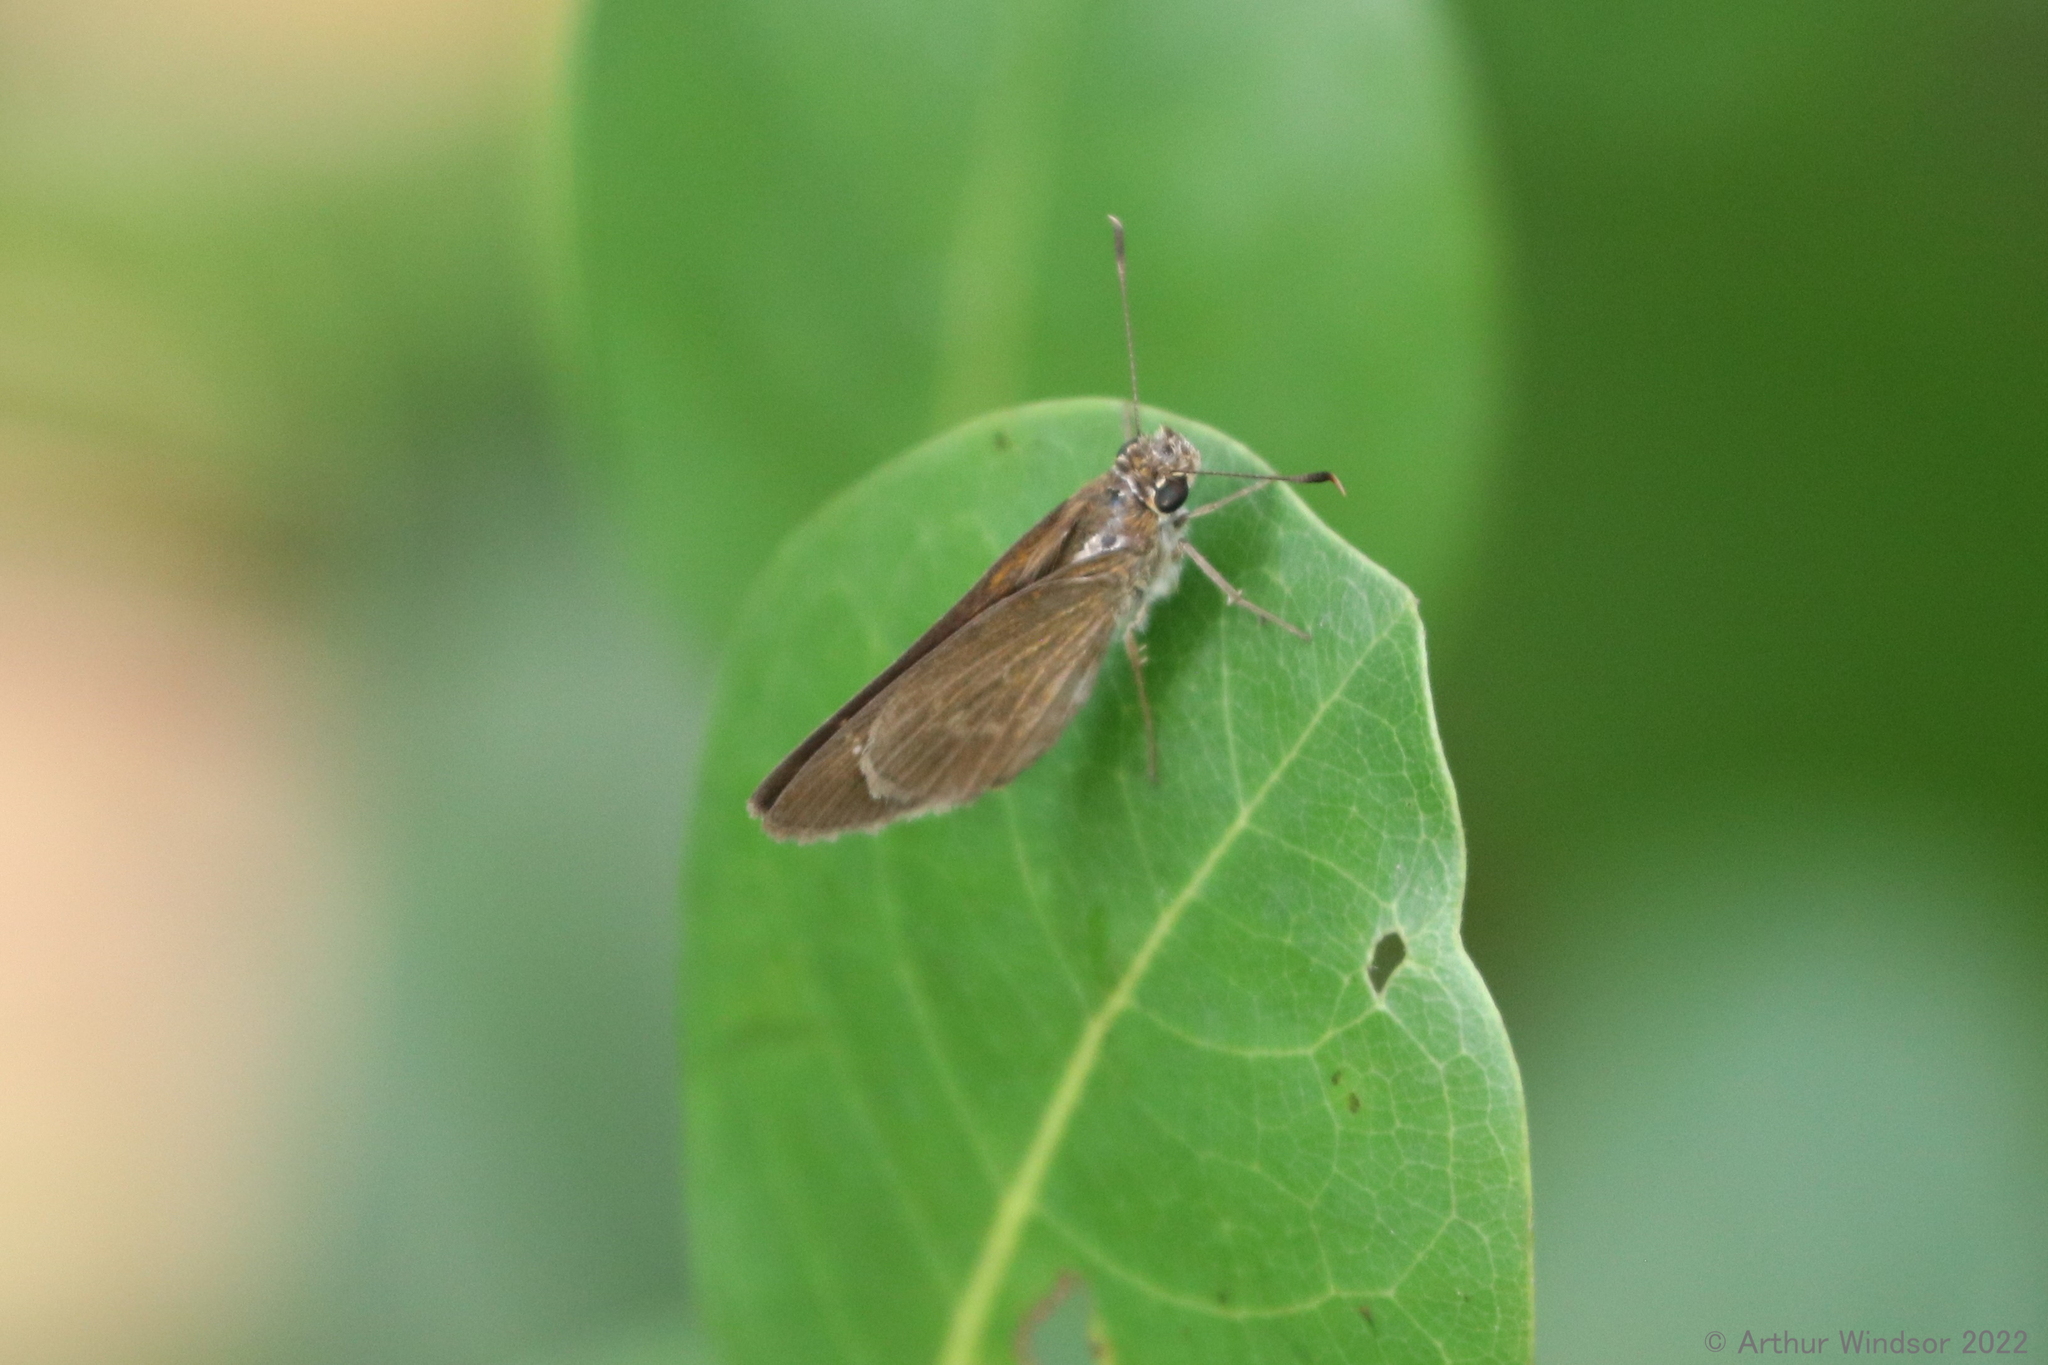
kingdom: Animalia
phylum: Arthropoda
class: Insecta
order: Lepidoptera
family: Hesperiidae
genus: Cymaenes
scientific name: Cymaenes tripunctus
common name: Dingy dotted skipper
